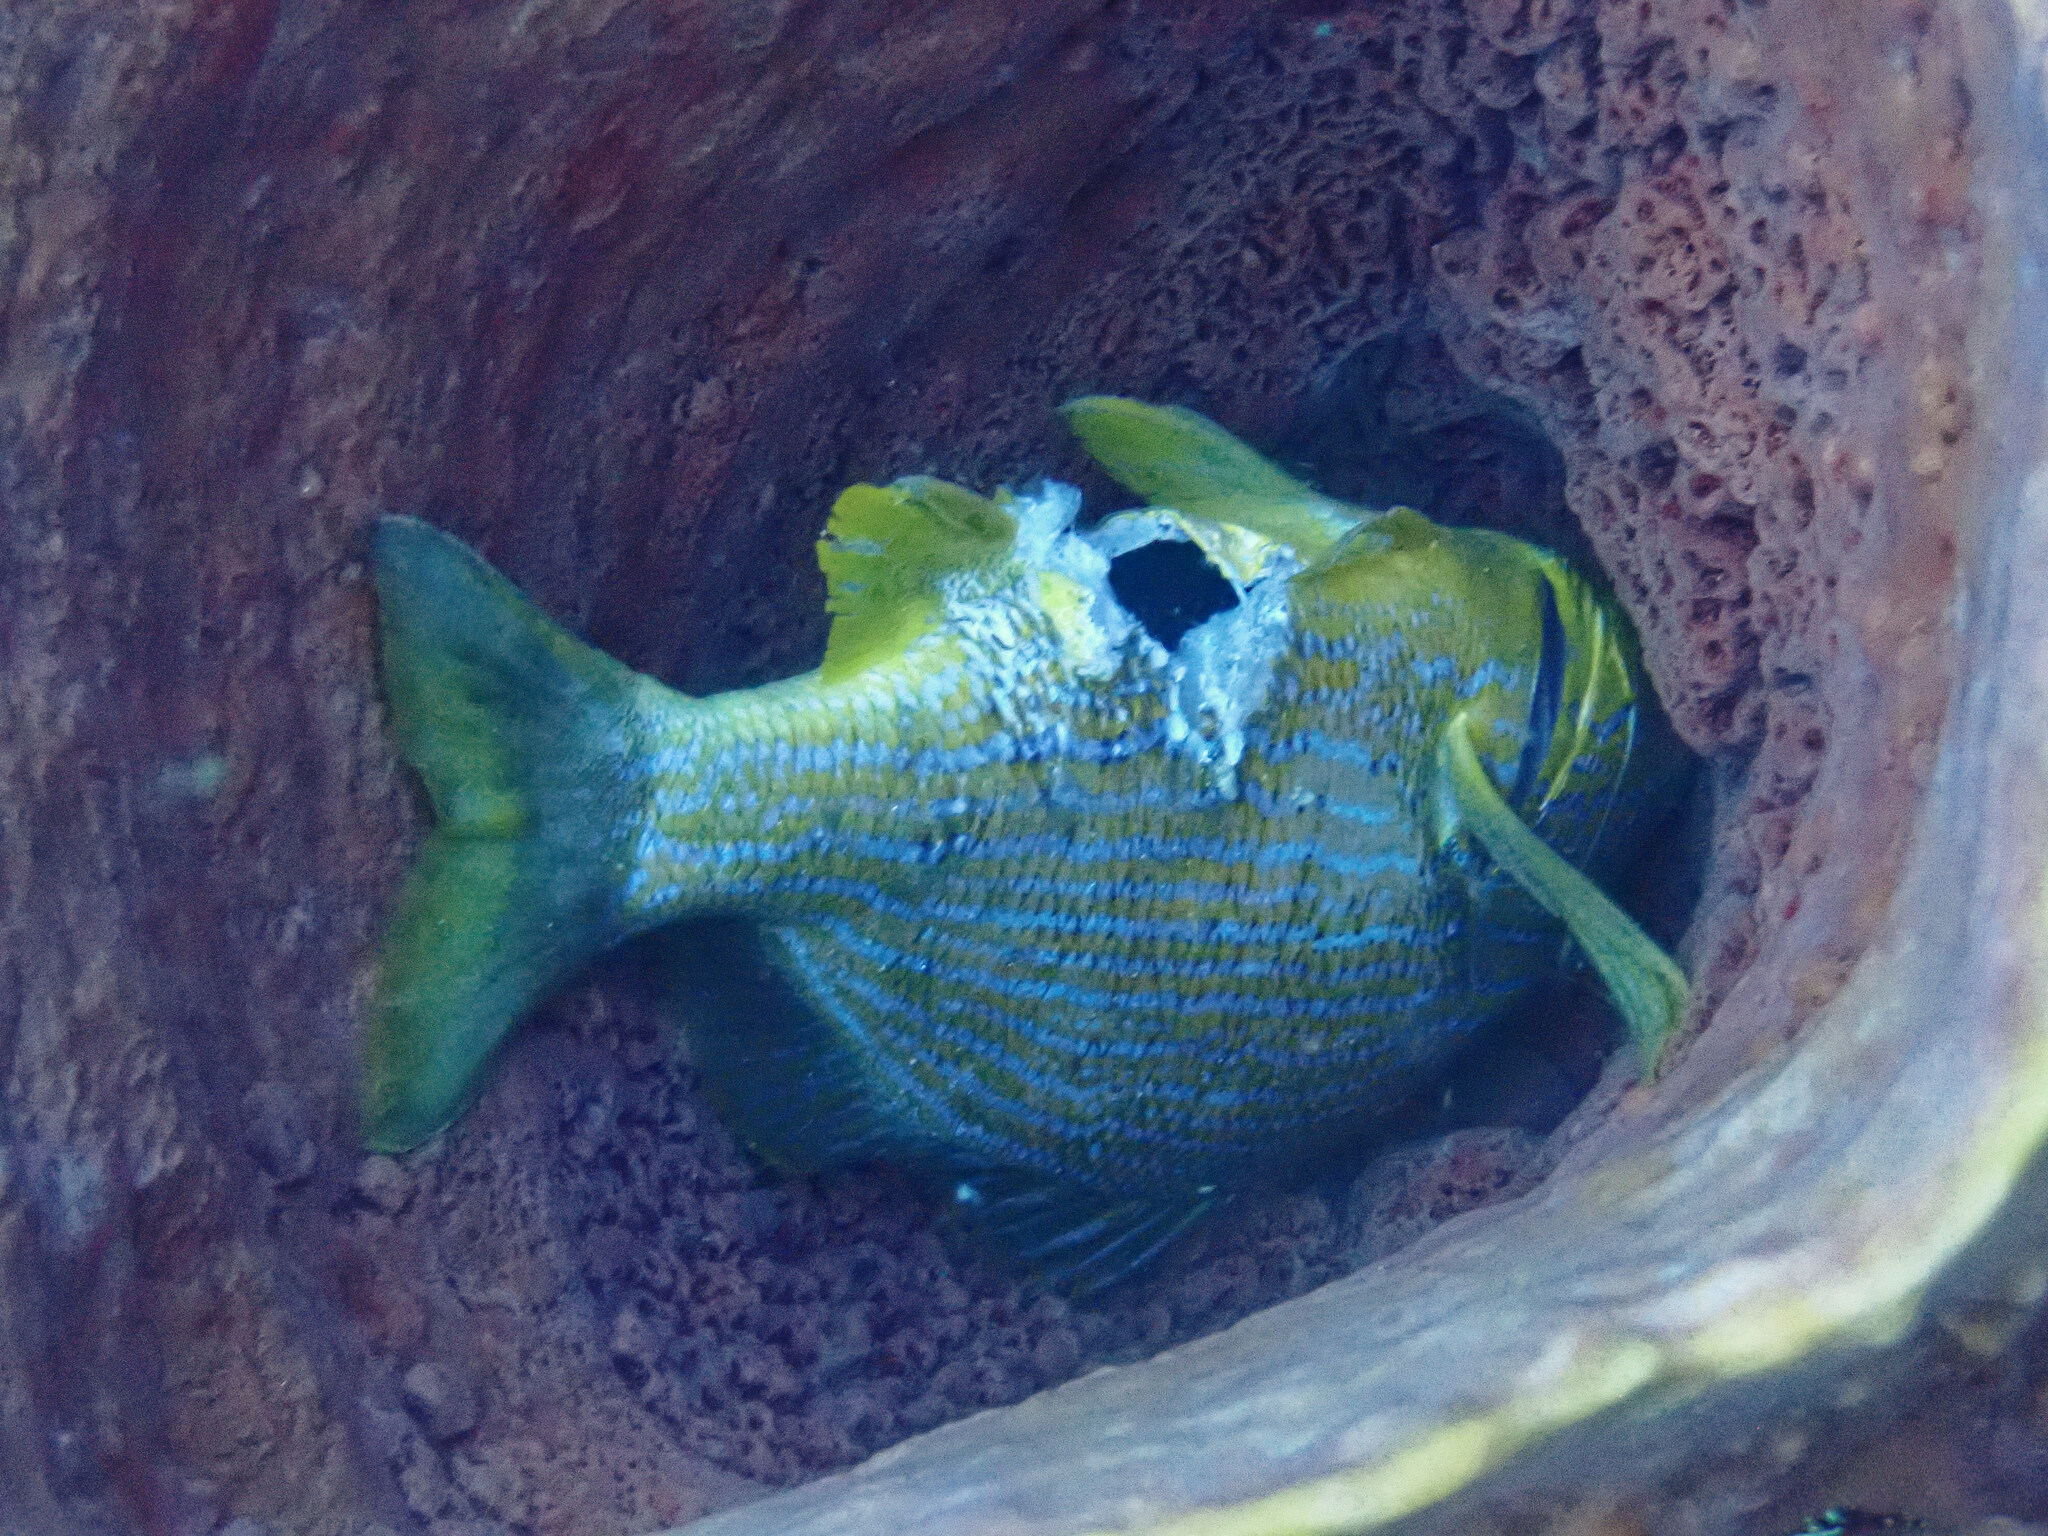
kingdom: Animalia
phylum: Chordata
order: Perciformes
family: Haemulidae
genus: Haemulon
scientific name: Haemulon sciurus
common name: Bluestriped grunt
